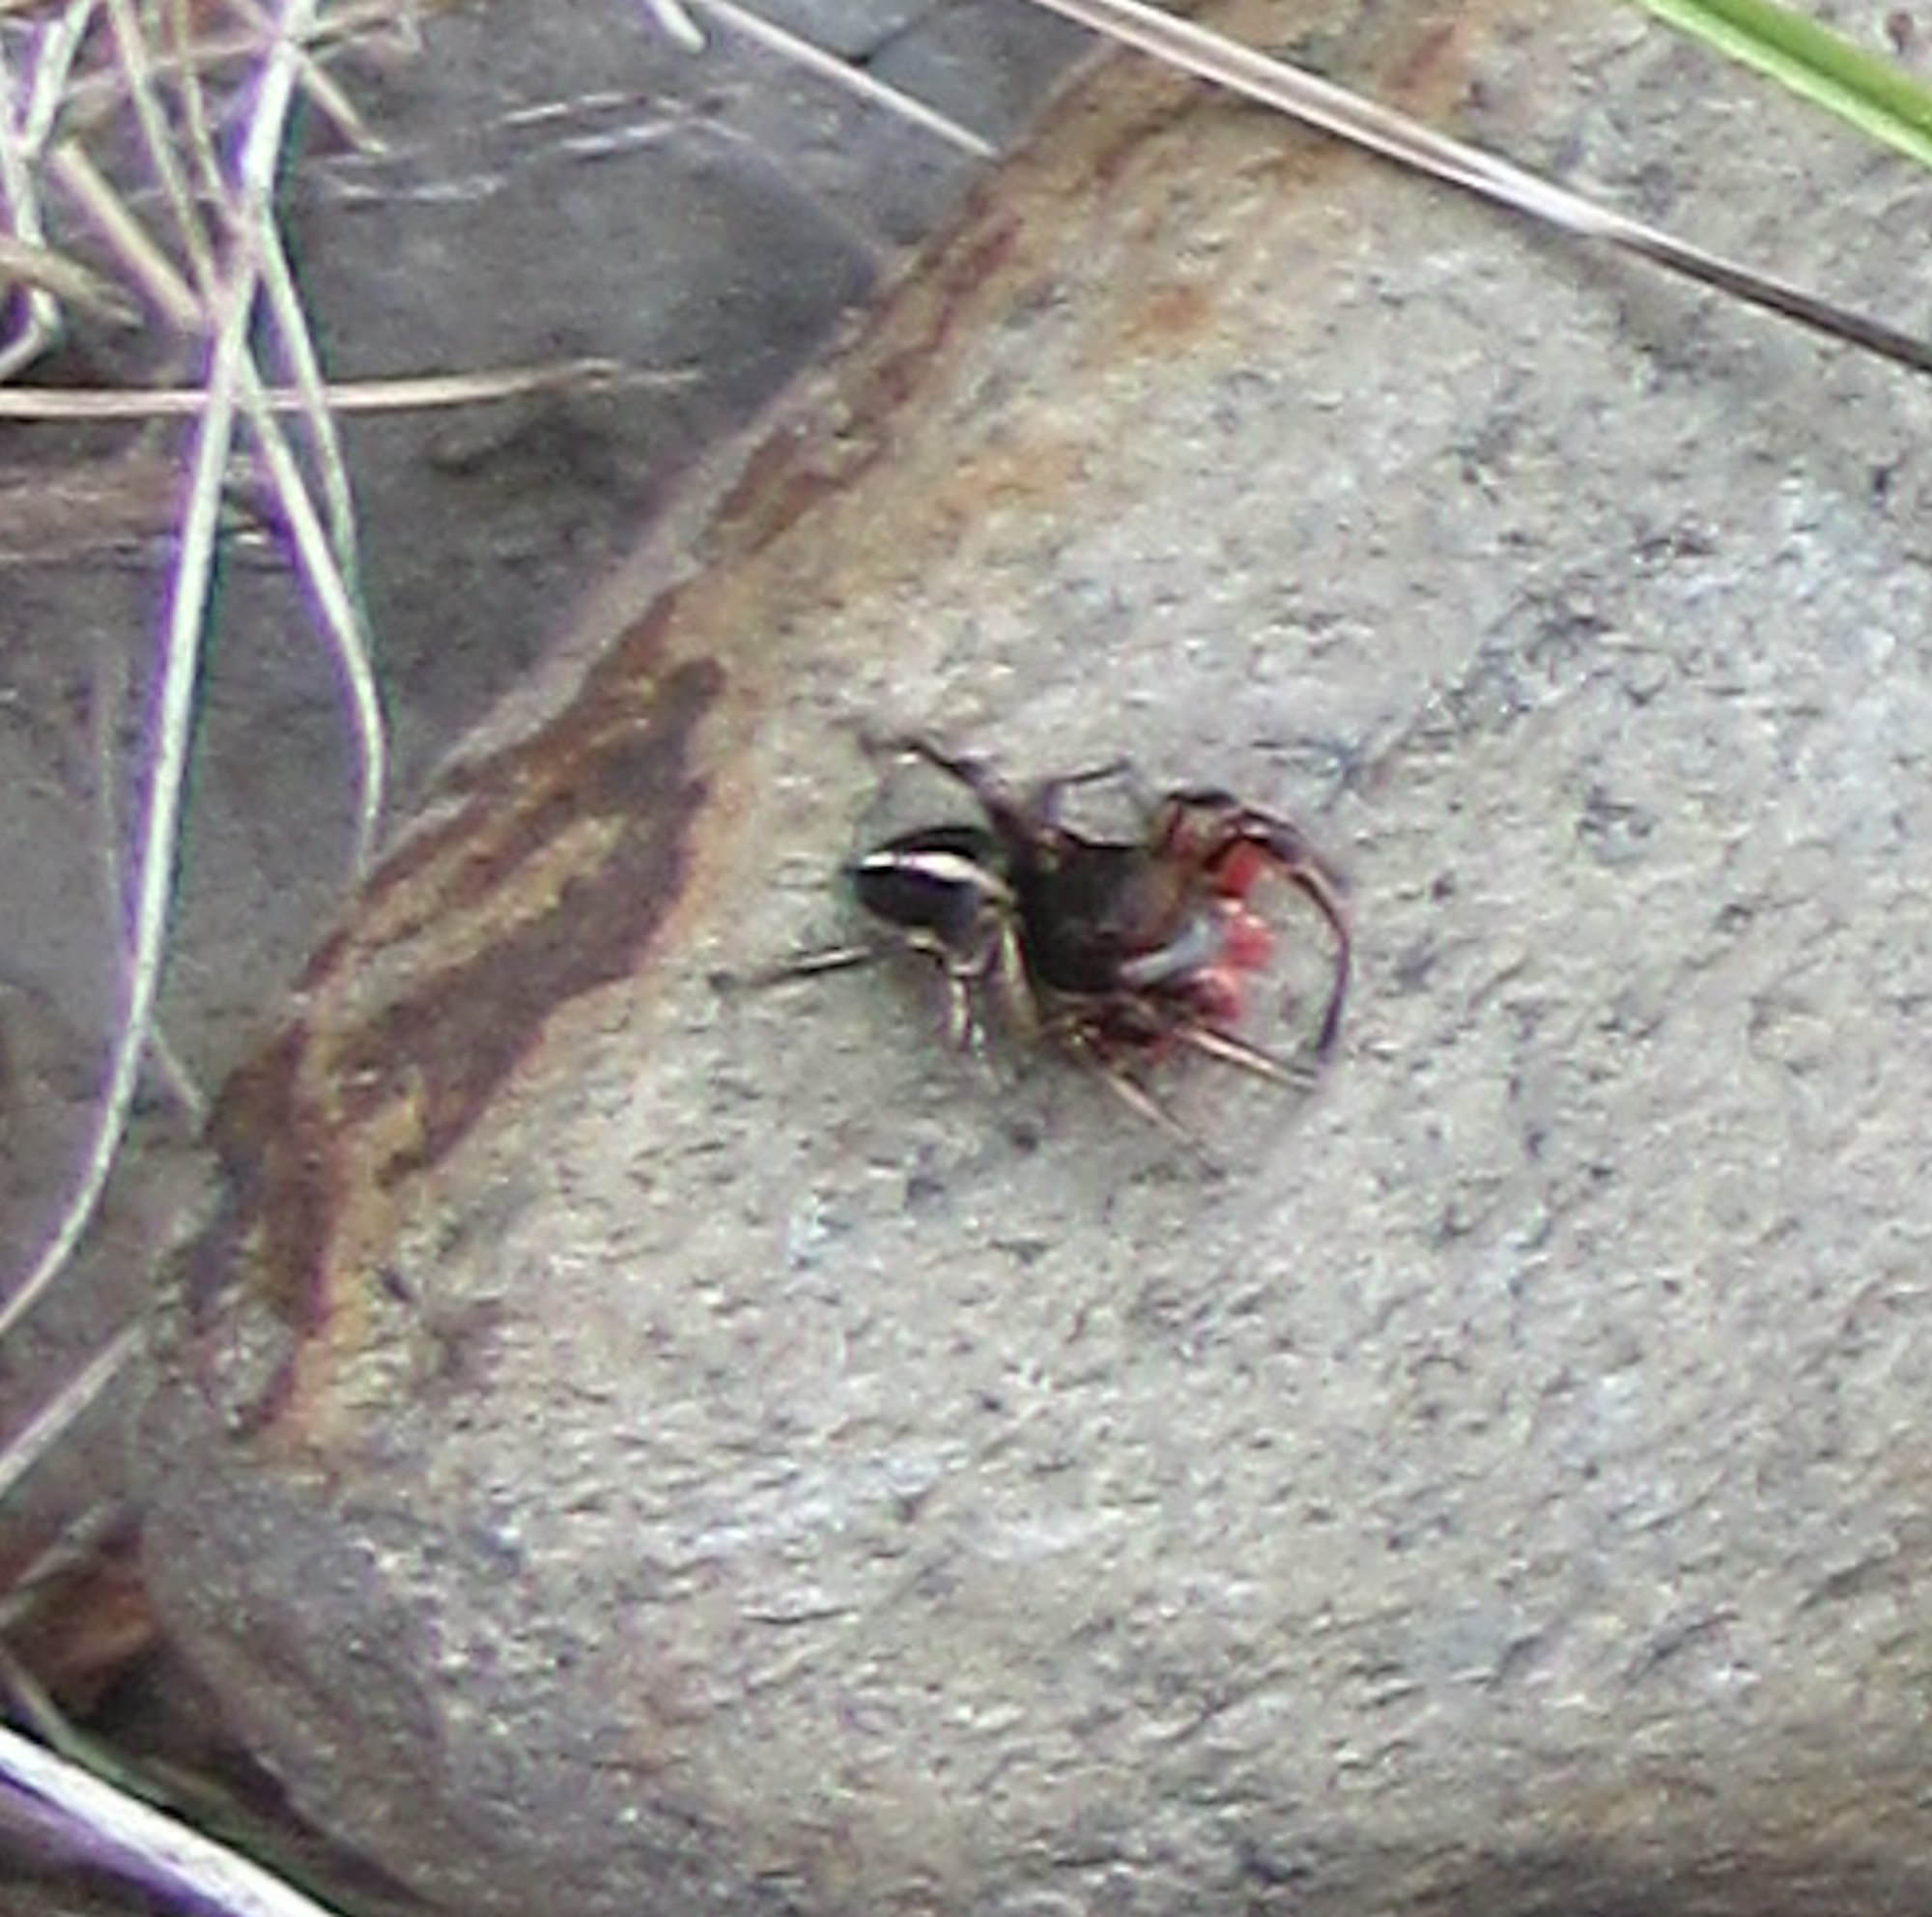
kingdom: Animalia
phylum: Arthropoda
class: Arachnida
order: Araneae
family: Salticidae
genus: Habronattus
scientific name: Habronattus americanus
